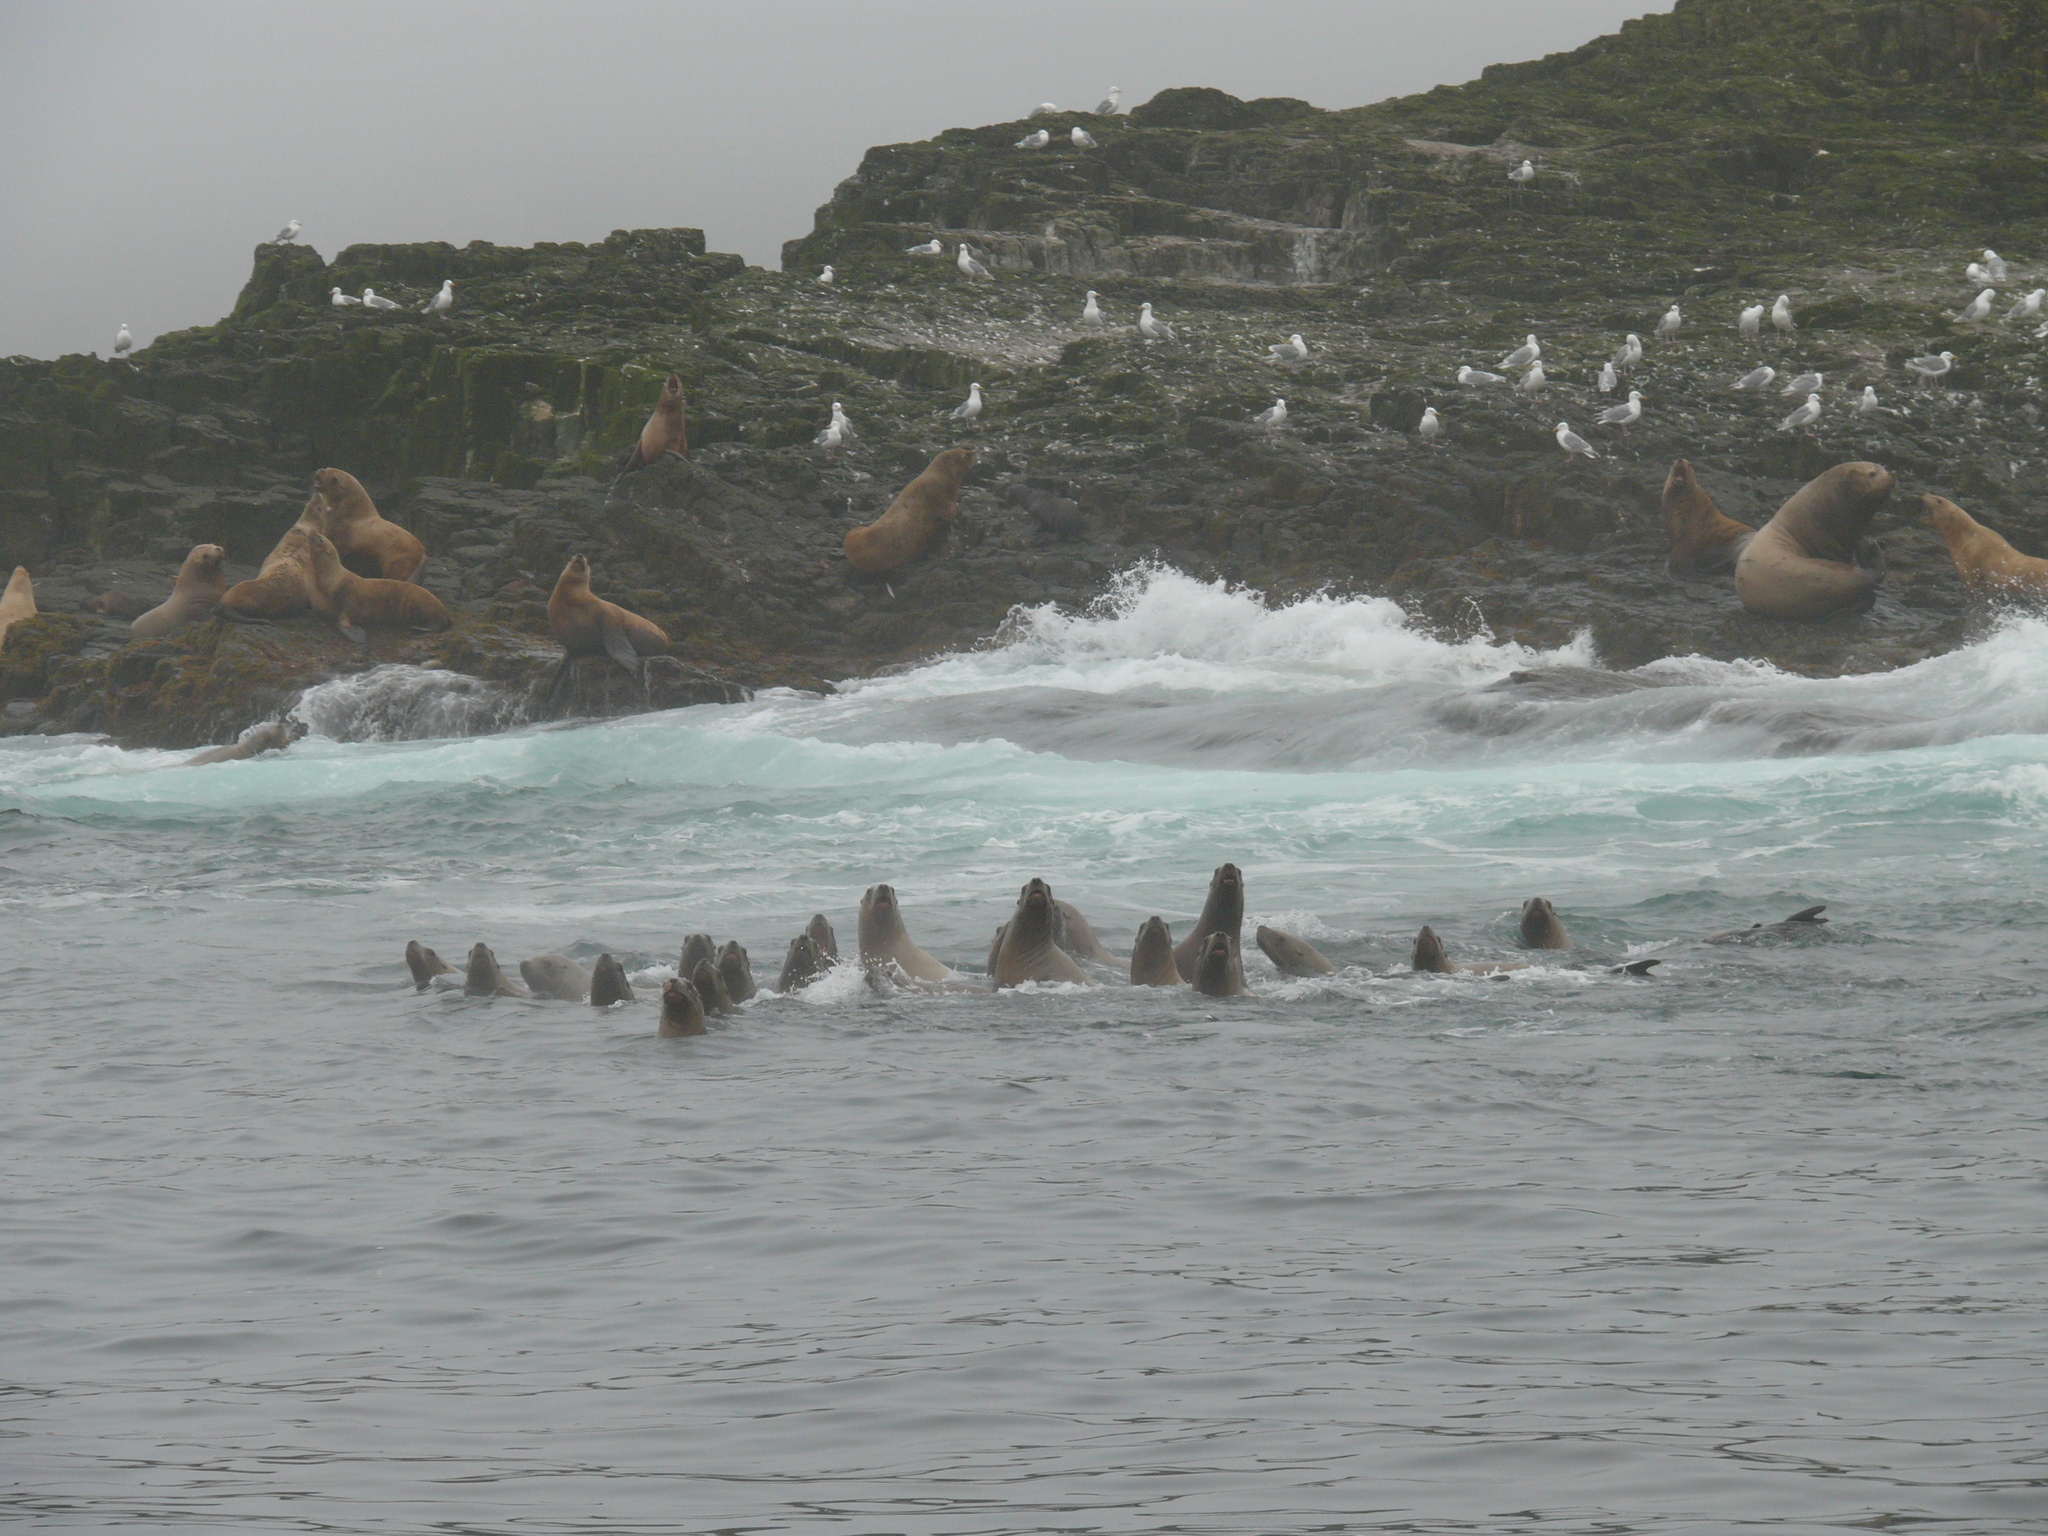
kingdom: Animalia
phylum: Chordata
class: Mammalia
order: Carnivora
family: Otariidae
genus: Eumetopias
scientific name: Eumetopias jubatus
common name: Steller sea lion
